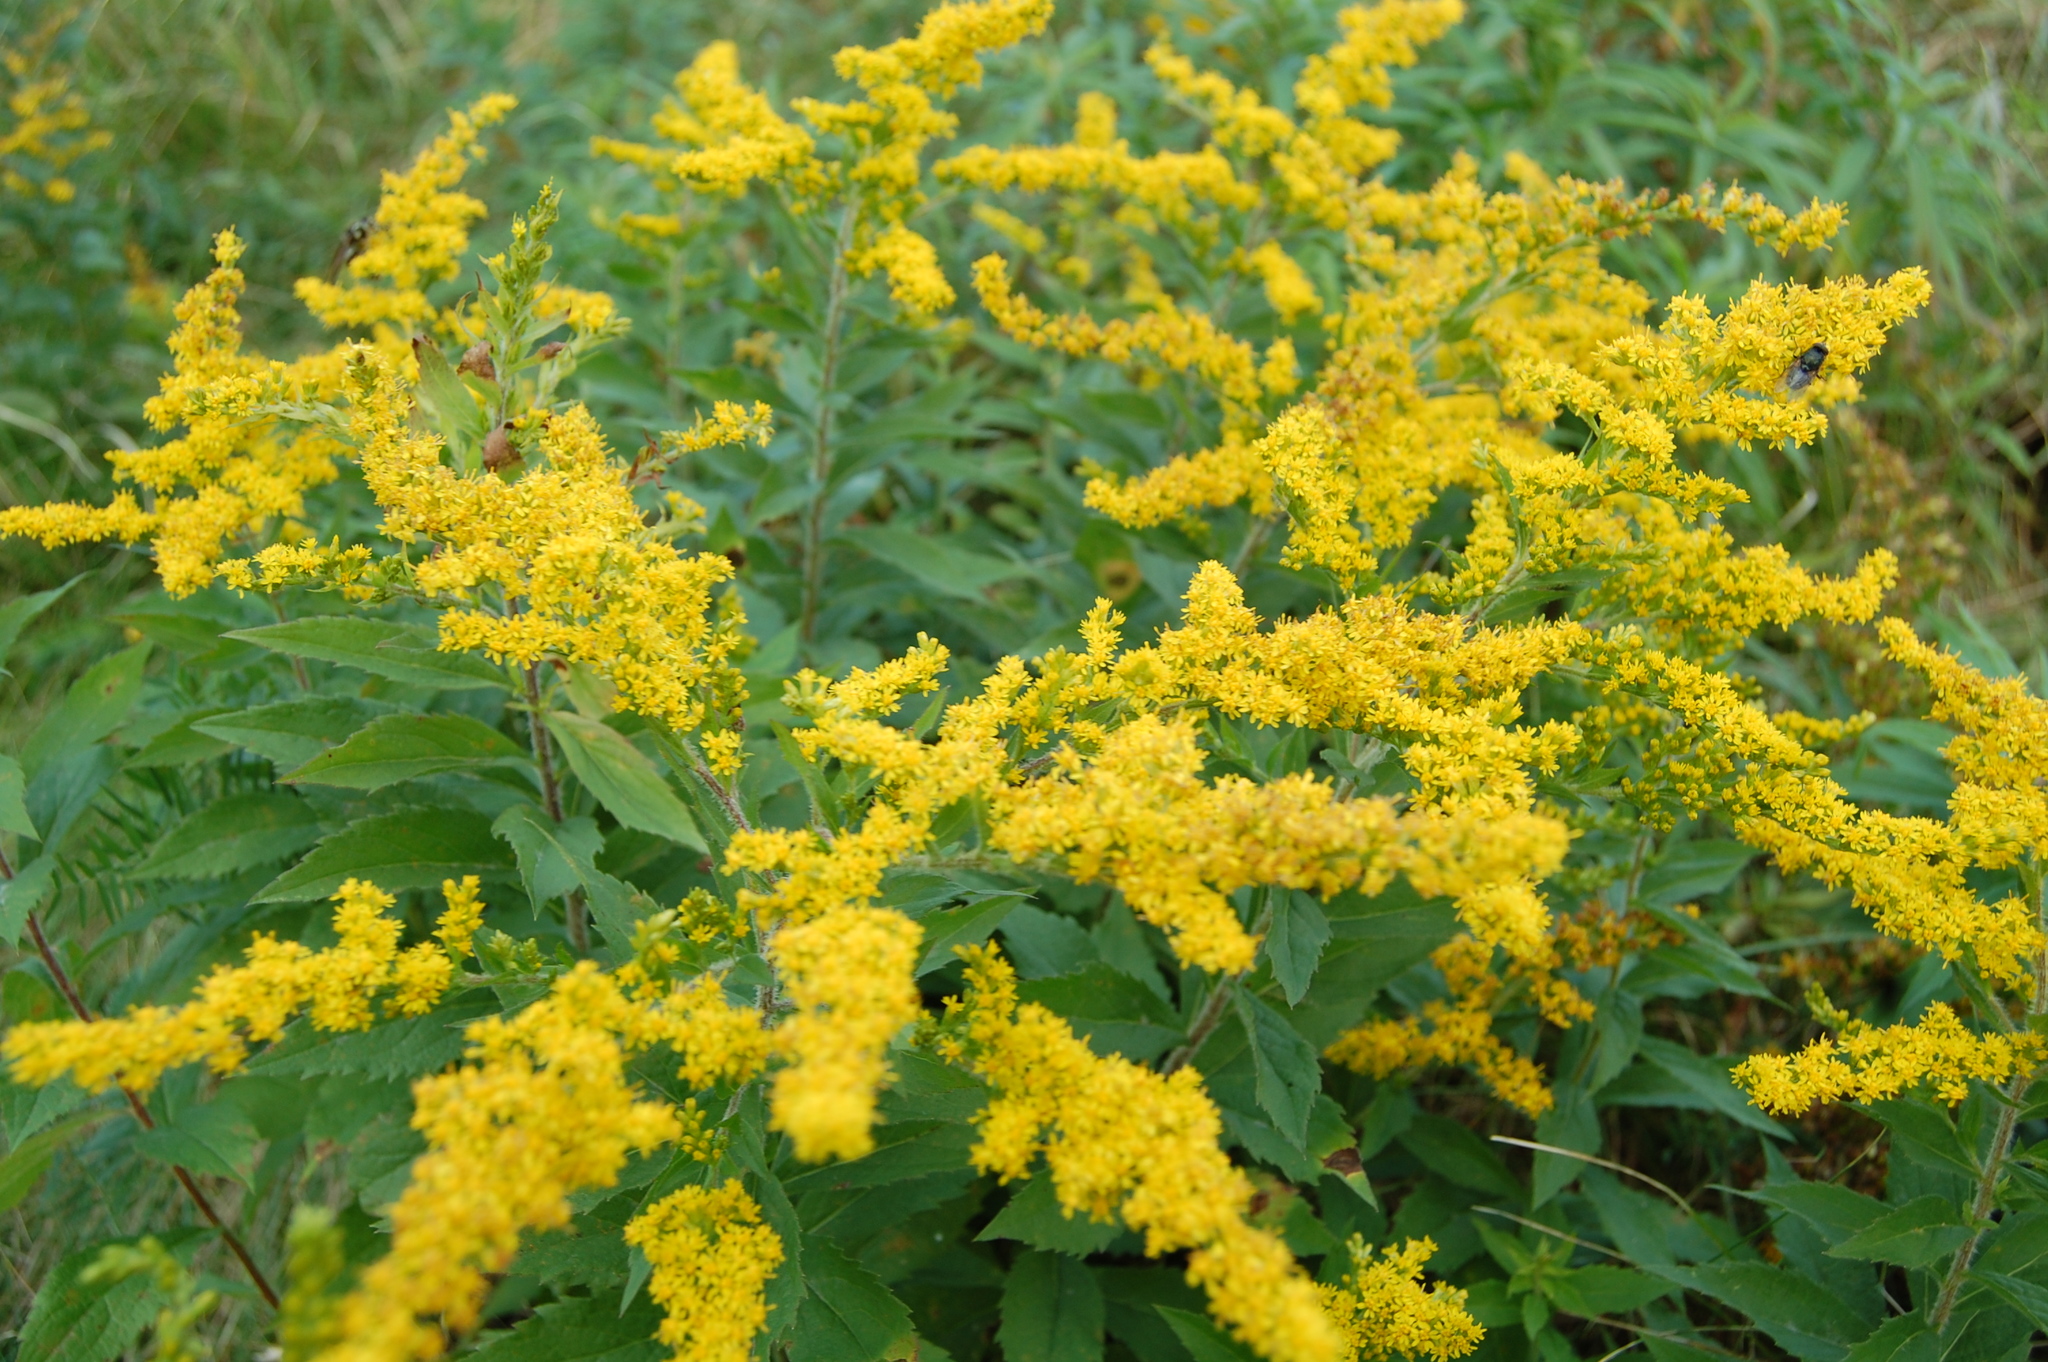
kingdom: Plantae
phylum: Tracheophyta
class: Magnoliopsida
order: Asterales
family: Asteraceae
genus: Solidago
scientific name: Solidago rugosa
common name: Rough-stemmed goldenrod
